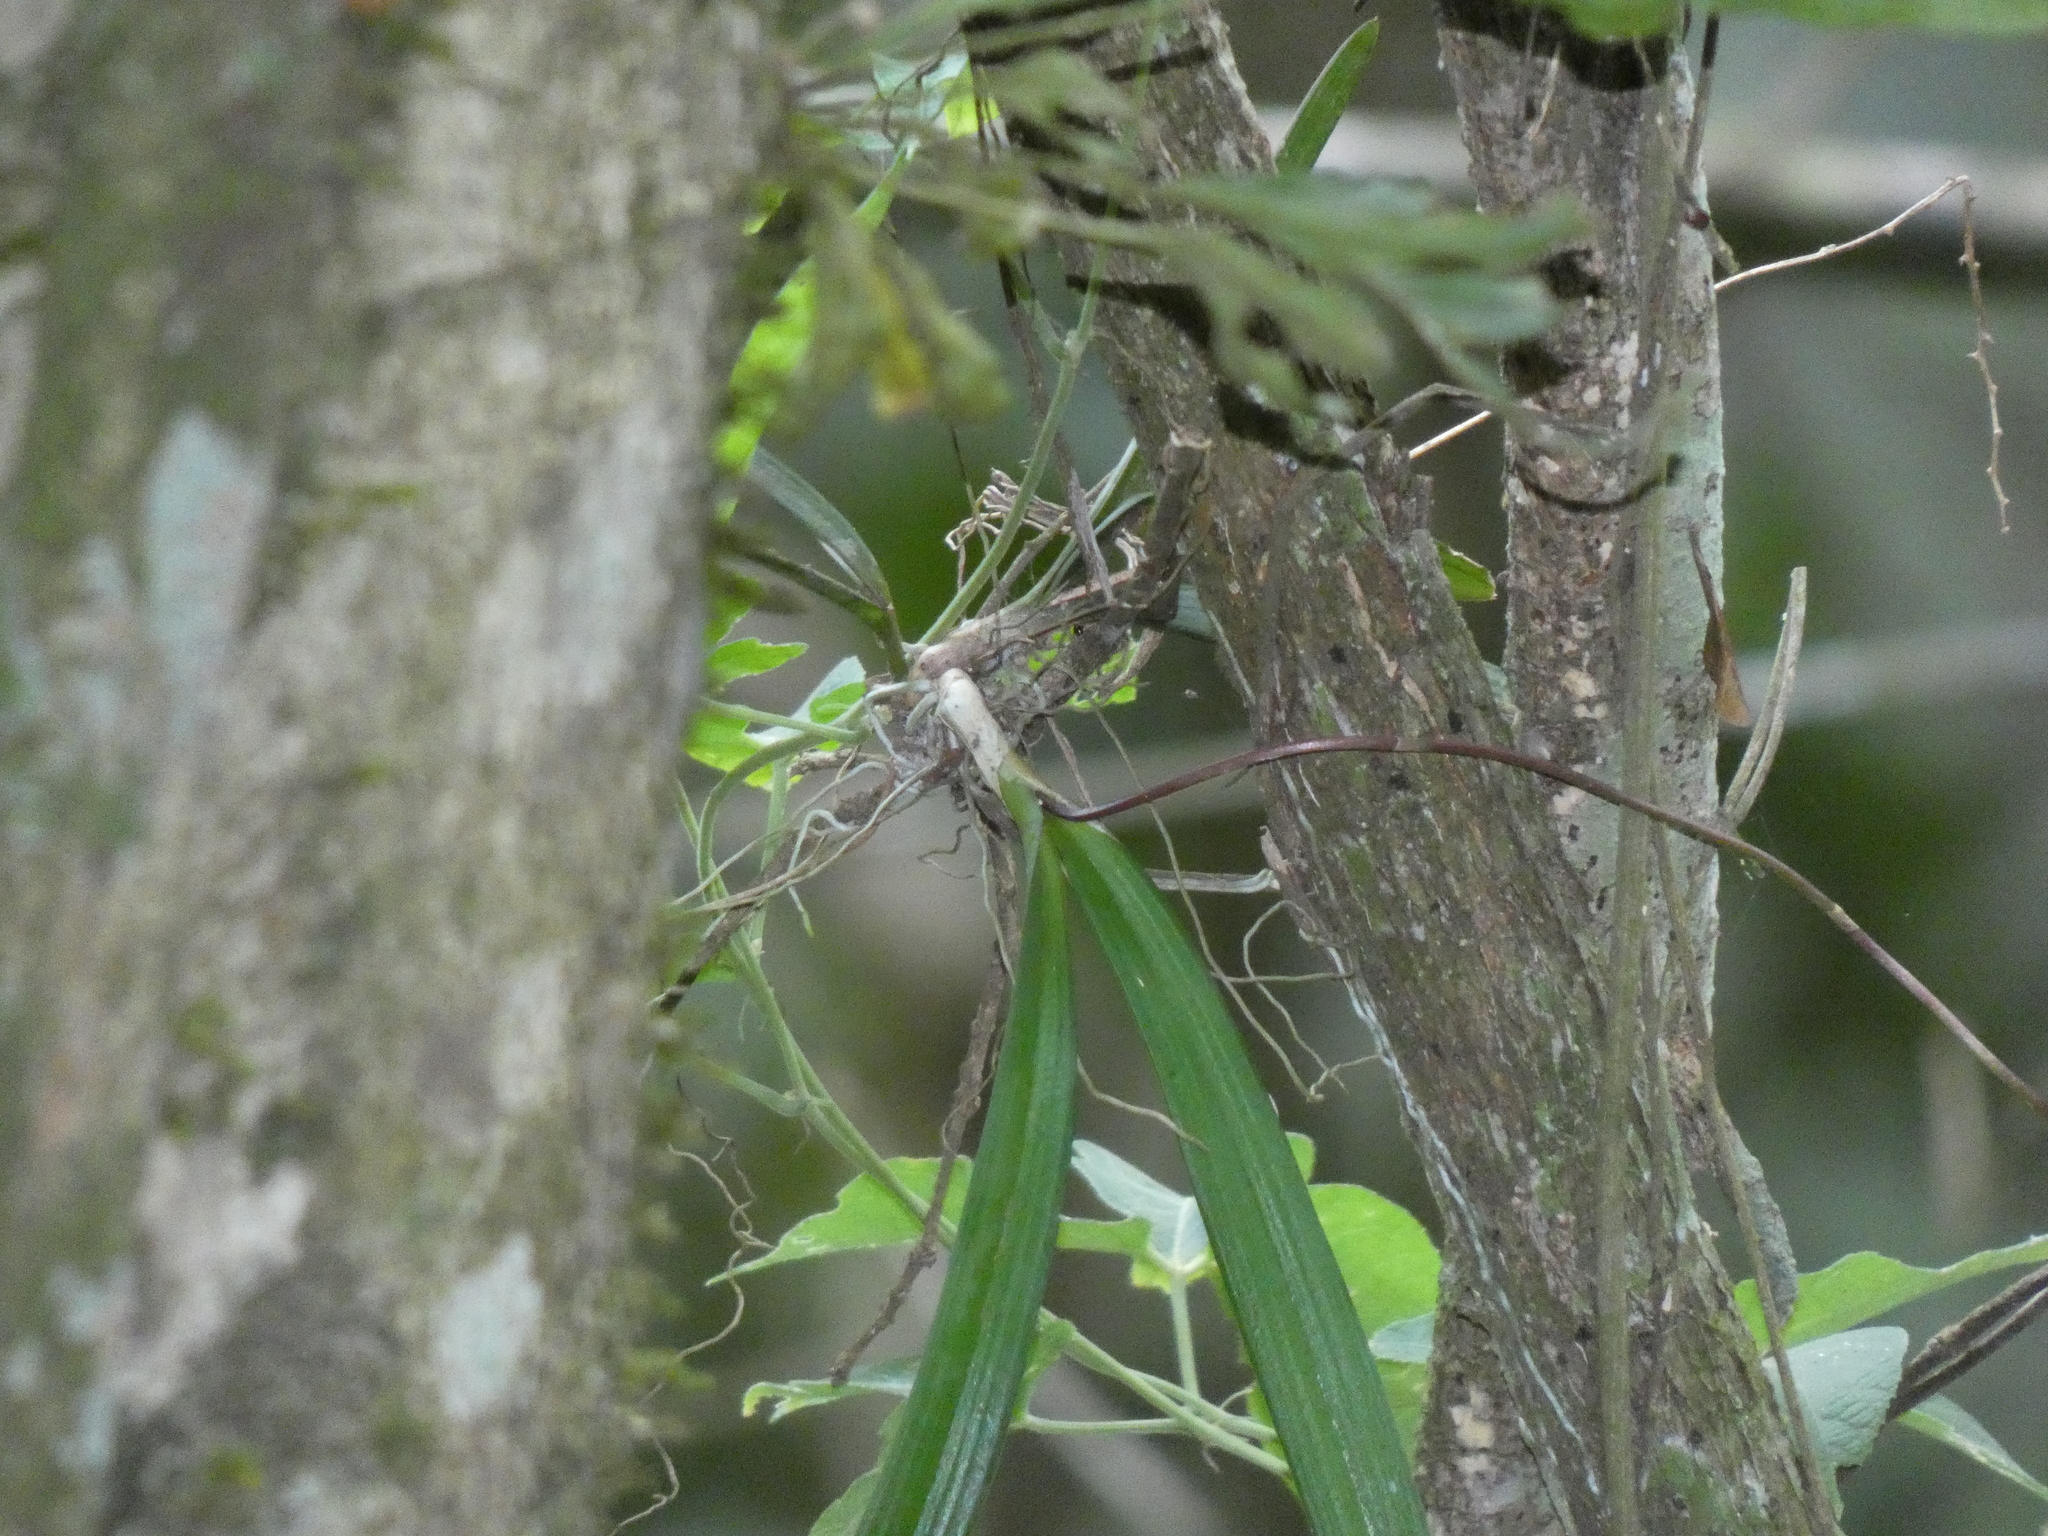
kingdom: Plantae
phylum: Tracheophyta
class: Liliopsida
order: Asparagales
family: Orchidaceae
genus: Ionopsis
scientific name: Ionopsis utricularioides
